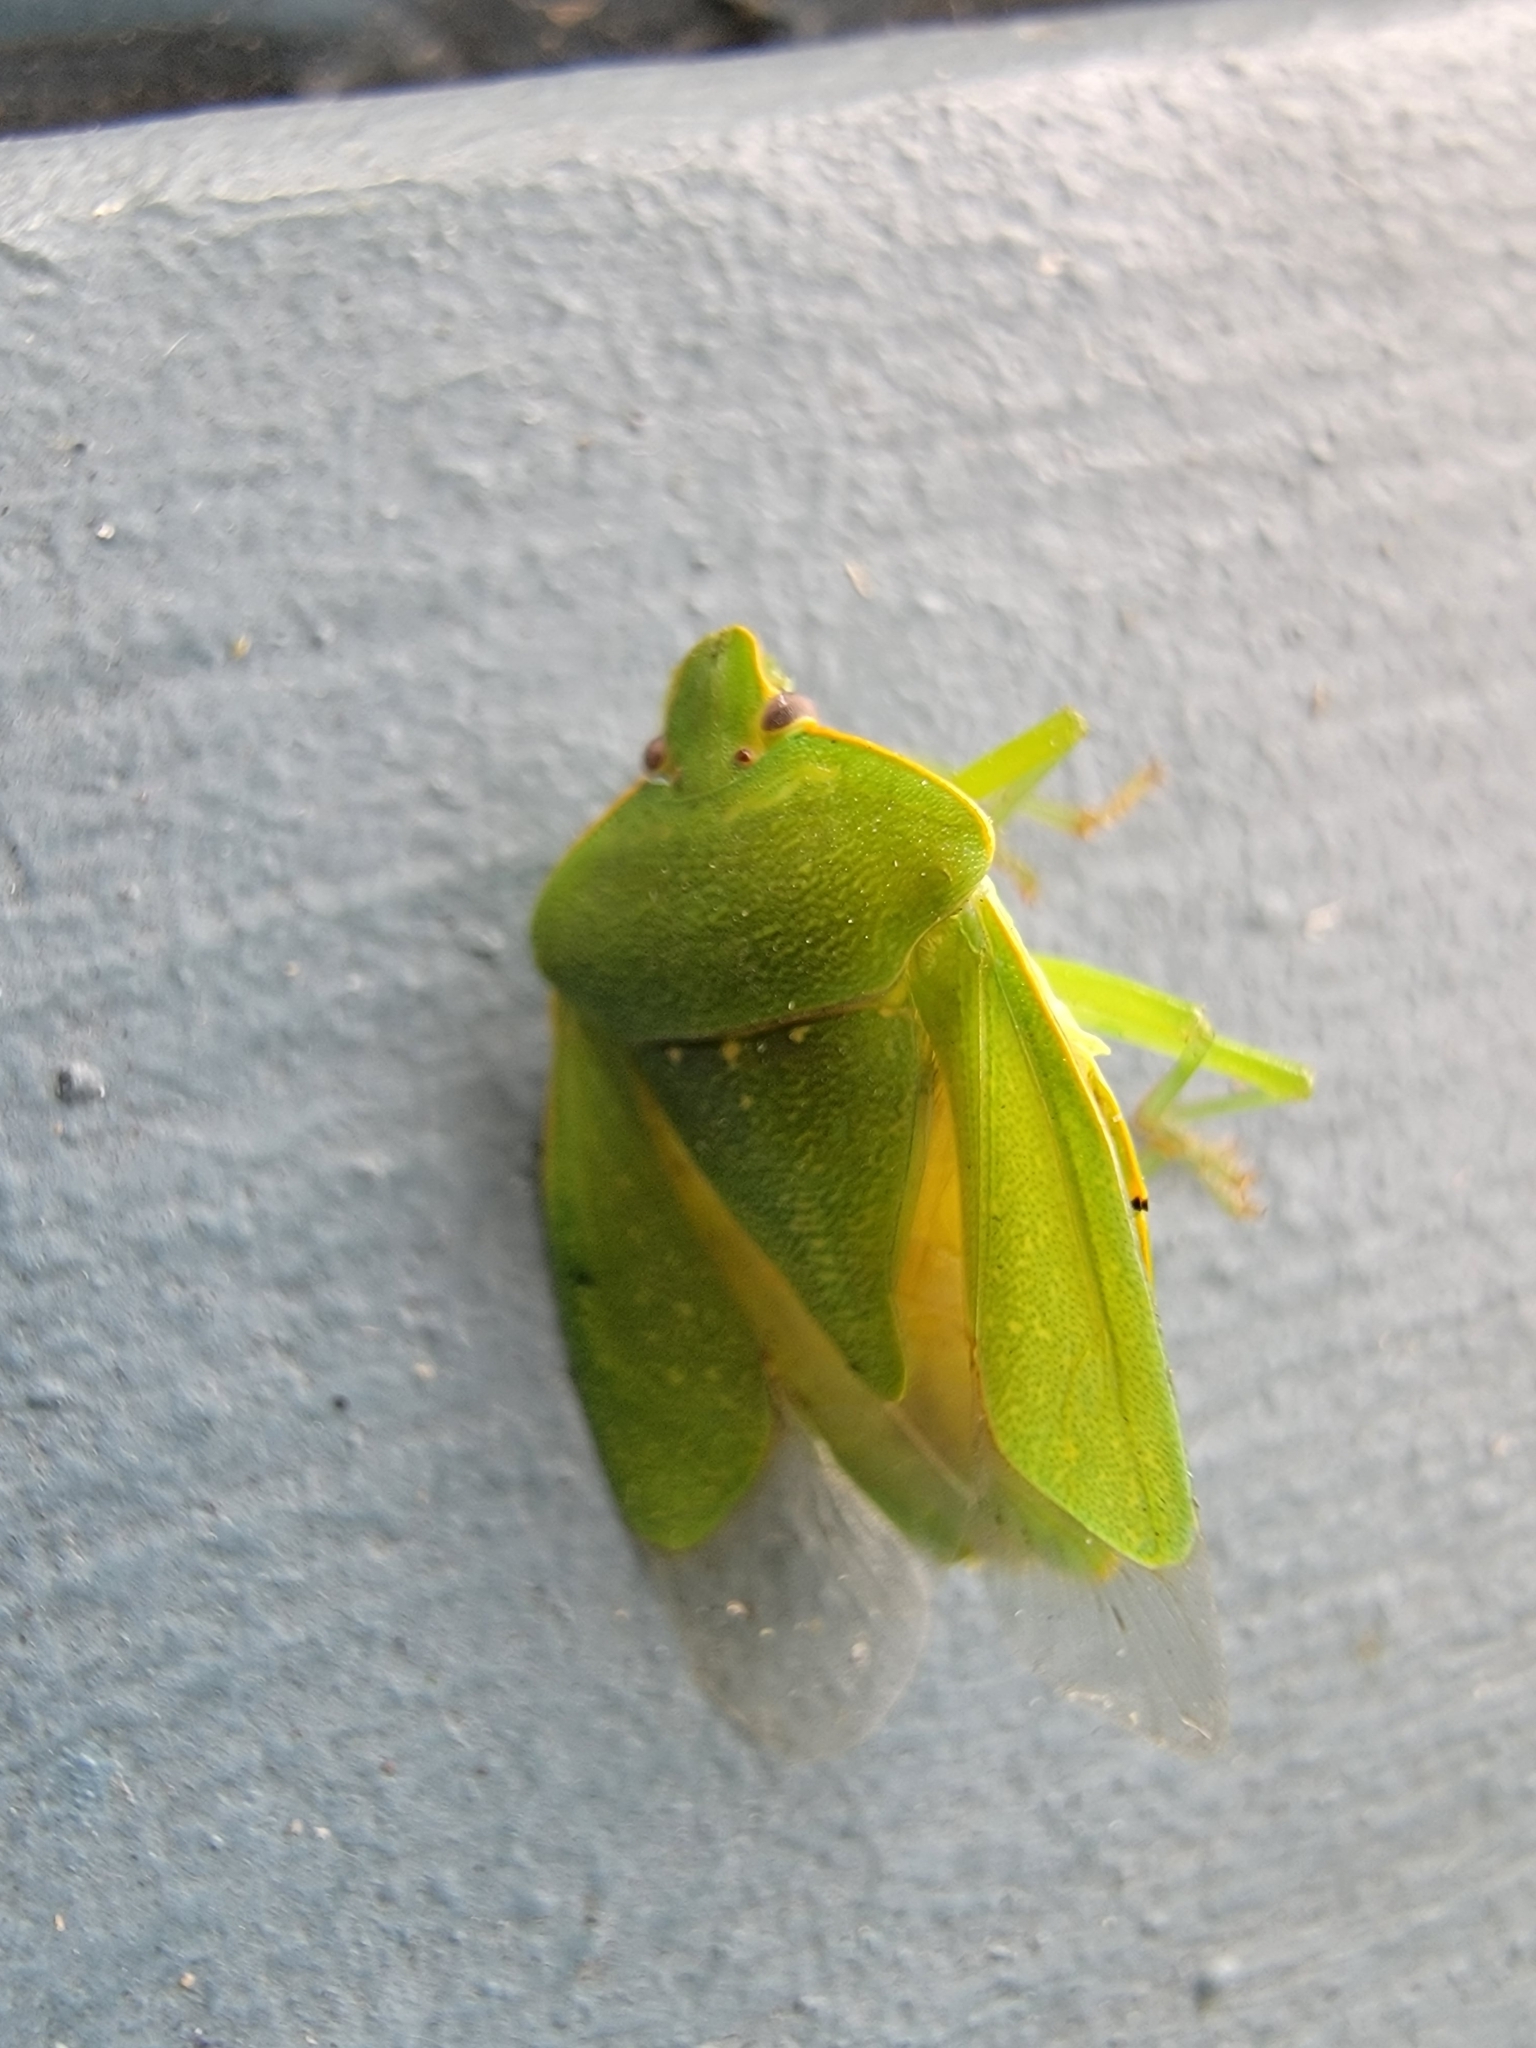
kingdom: Animalia
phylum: Arthropoda
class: Insecta
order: Hemiptera
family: Pentatomidae
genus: Chinavia
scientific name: Chinavia hilaris
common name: Green stink bug
